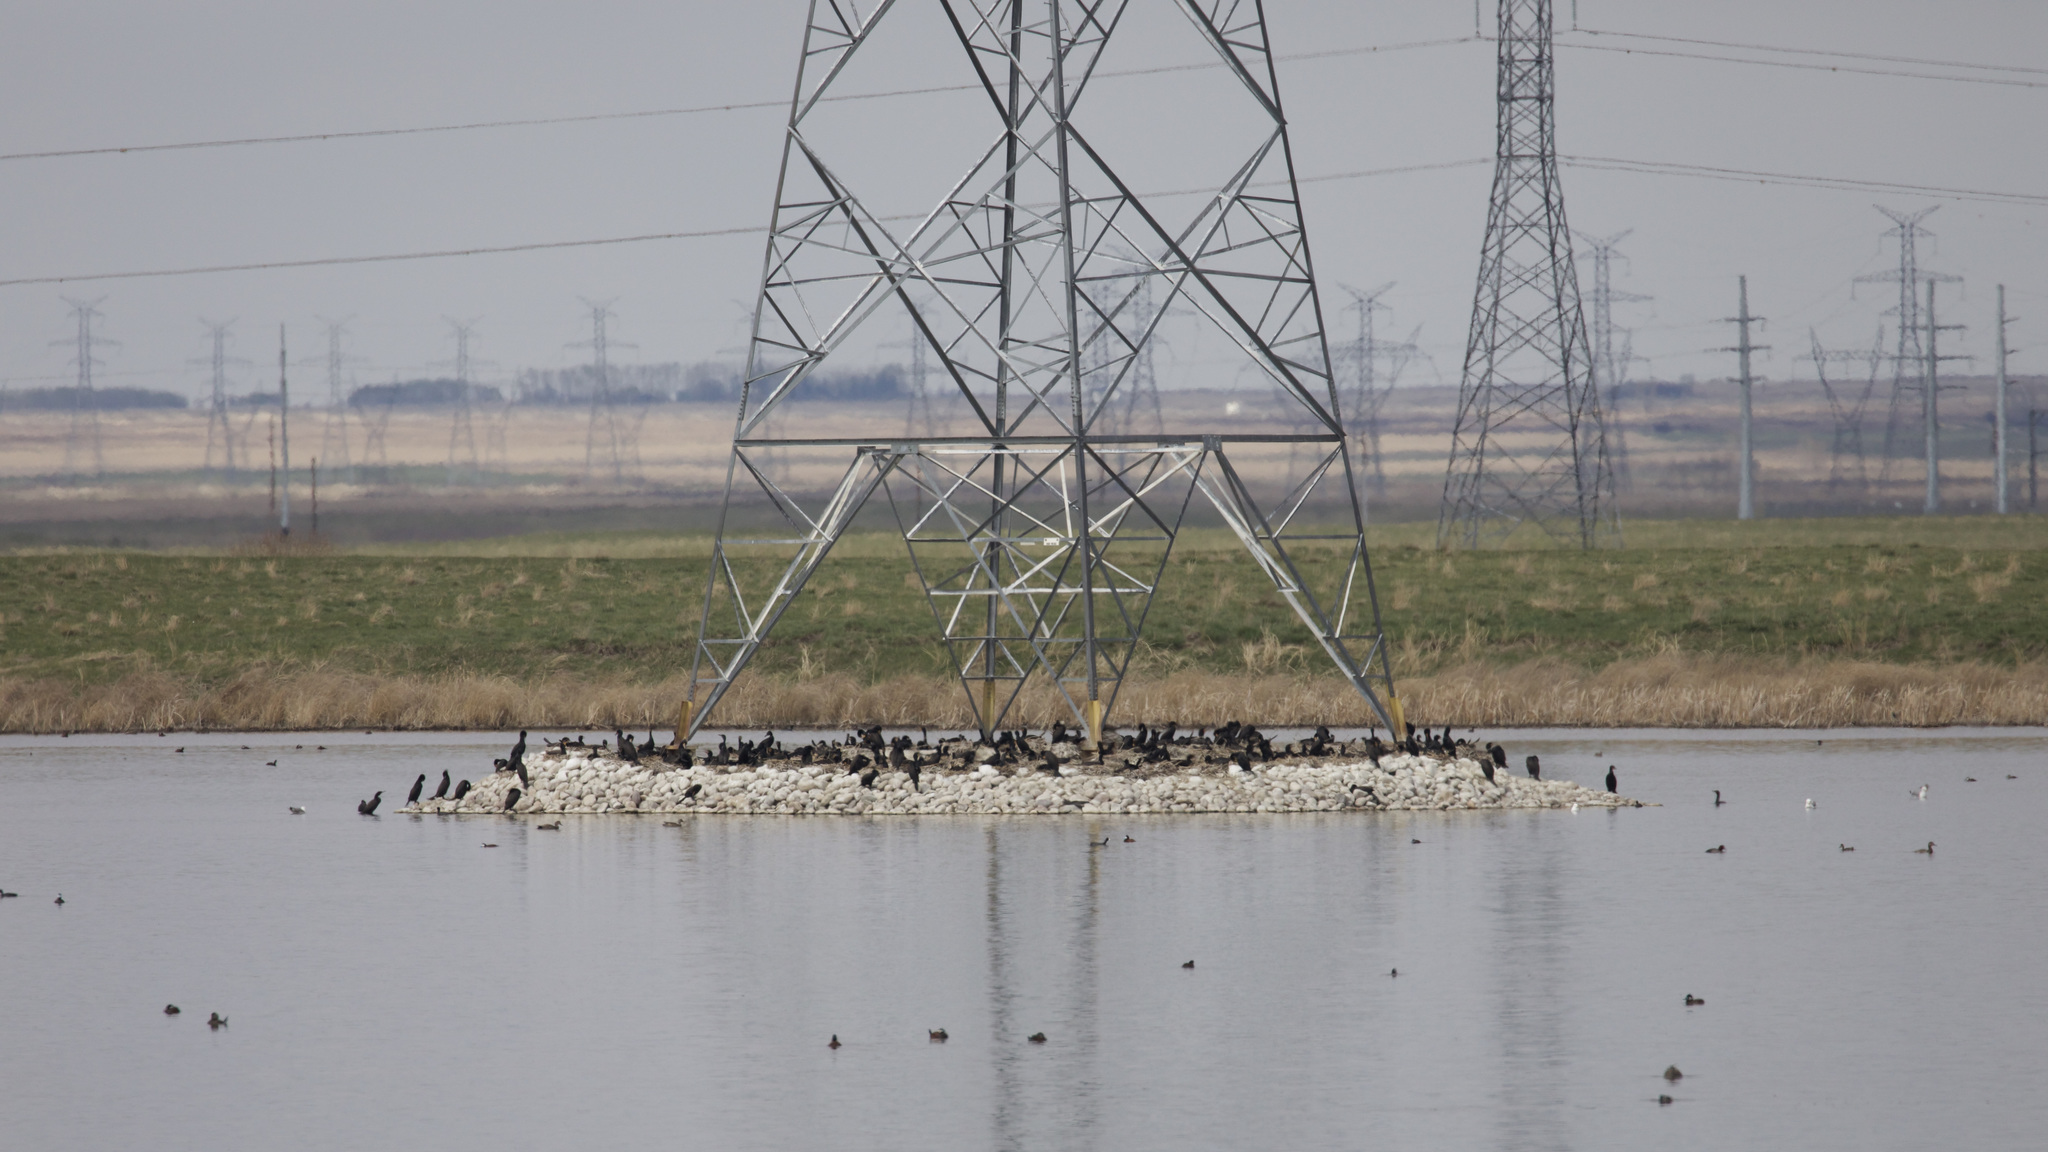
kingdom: Animalia
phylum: Chordata
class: Aves
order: Suliformes
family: Phalacrocoracidae
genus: Phalacrocorax
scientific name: Phalacrocorax auritus
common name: Double-crested cormorant
